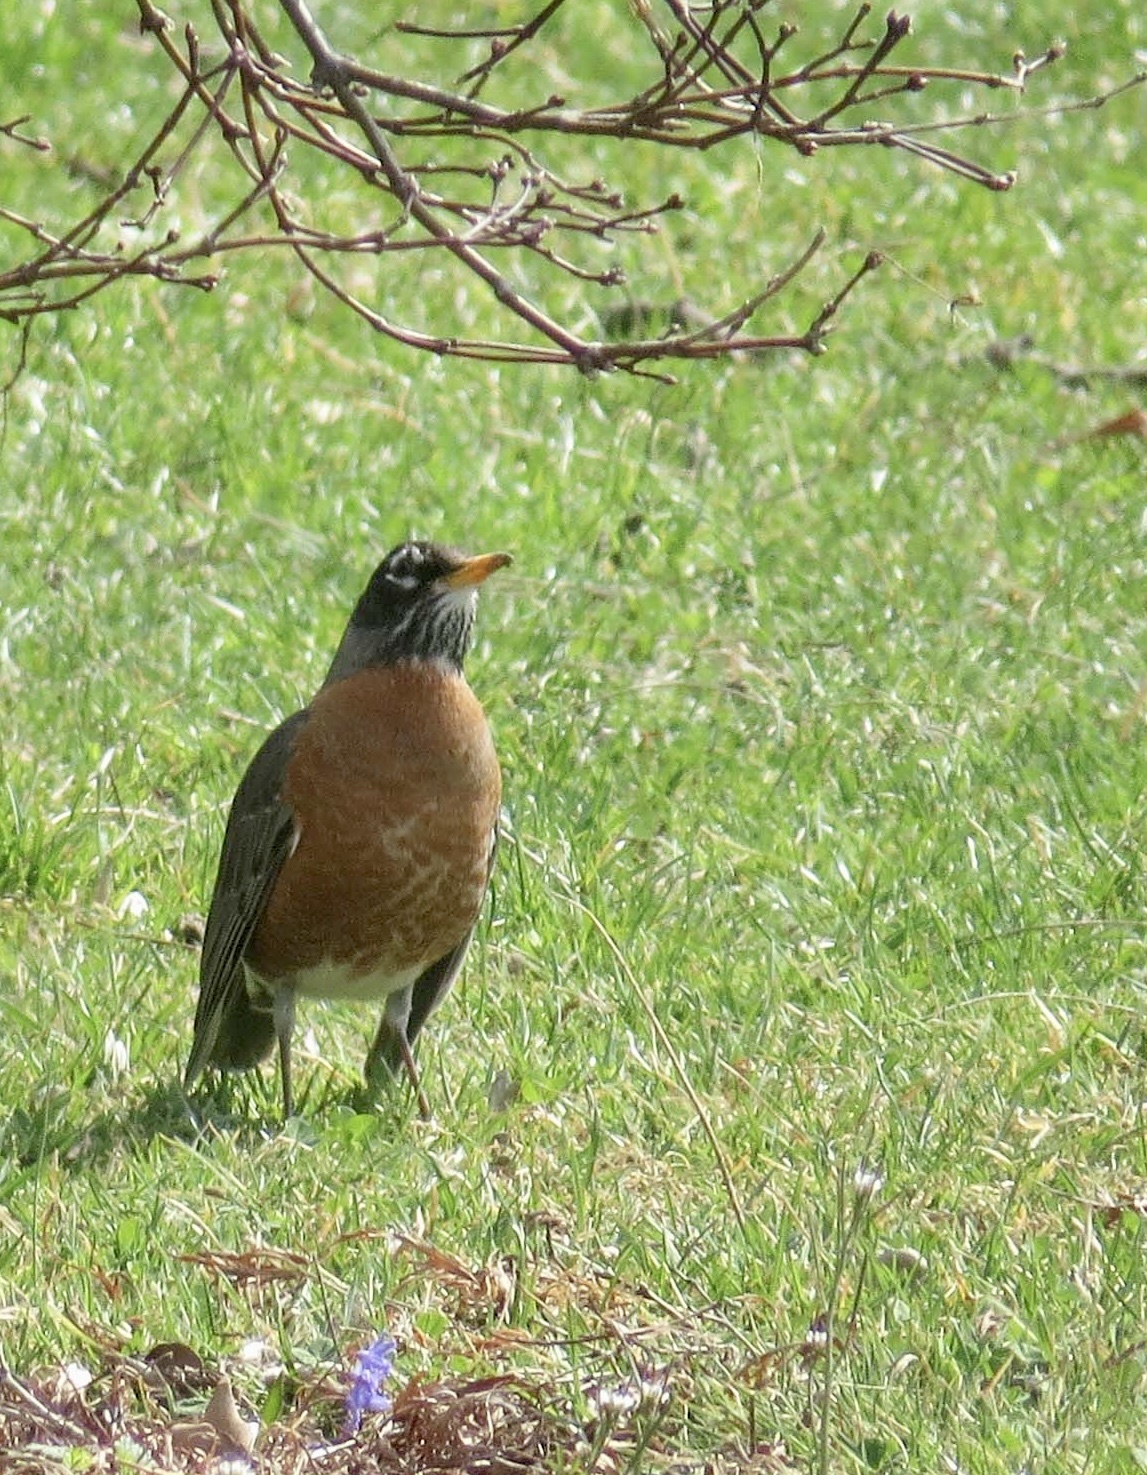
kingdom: Animalia
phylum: Chordata
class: Aves
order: Passeriformes
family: Turdidae
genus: Turdus
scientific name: Turdus migratorius
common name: American robin
